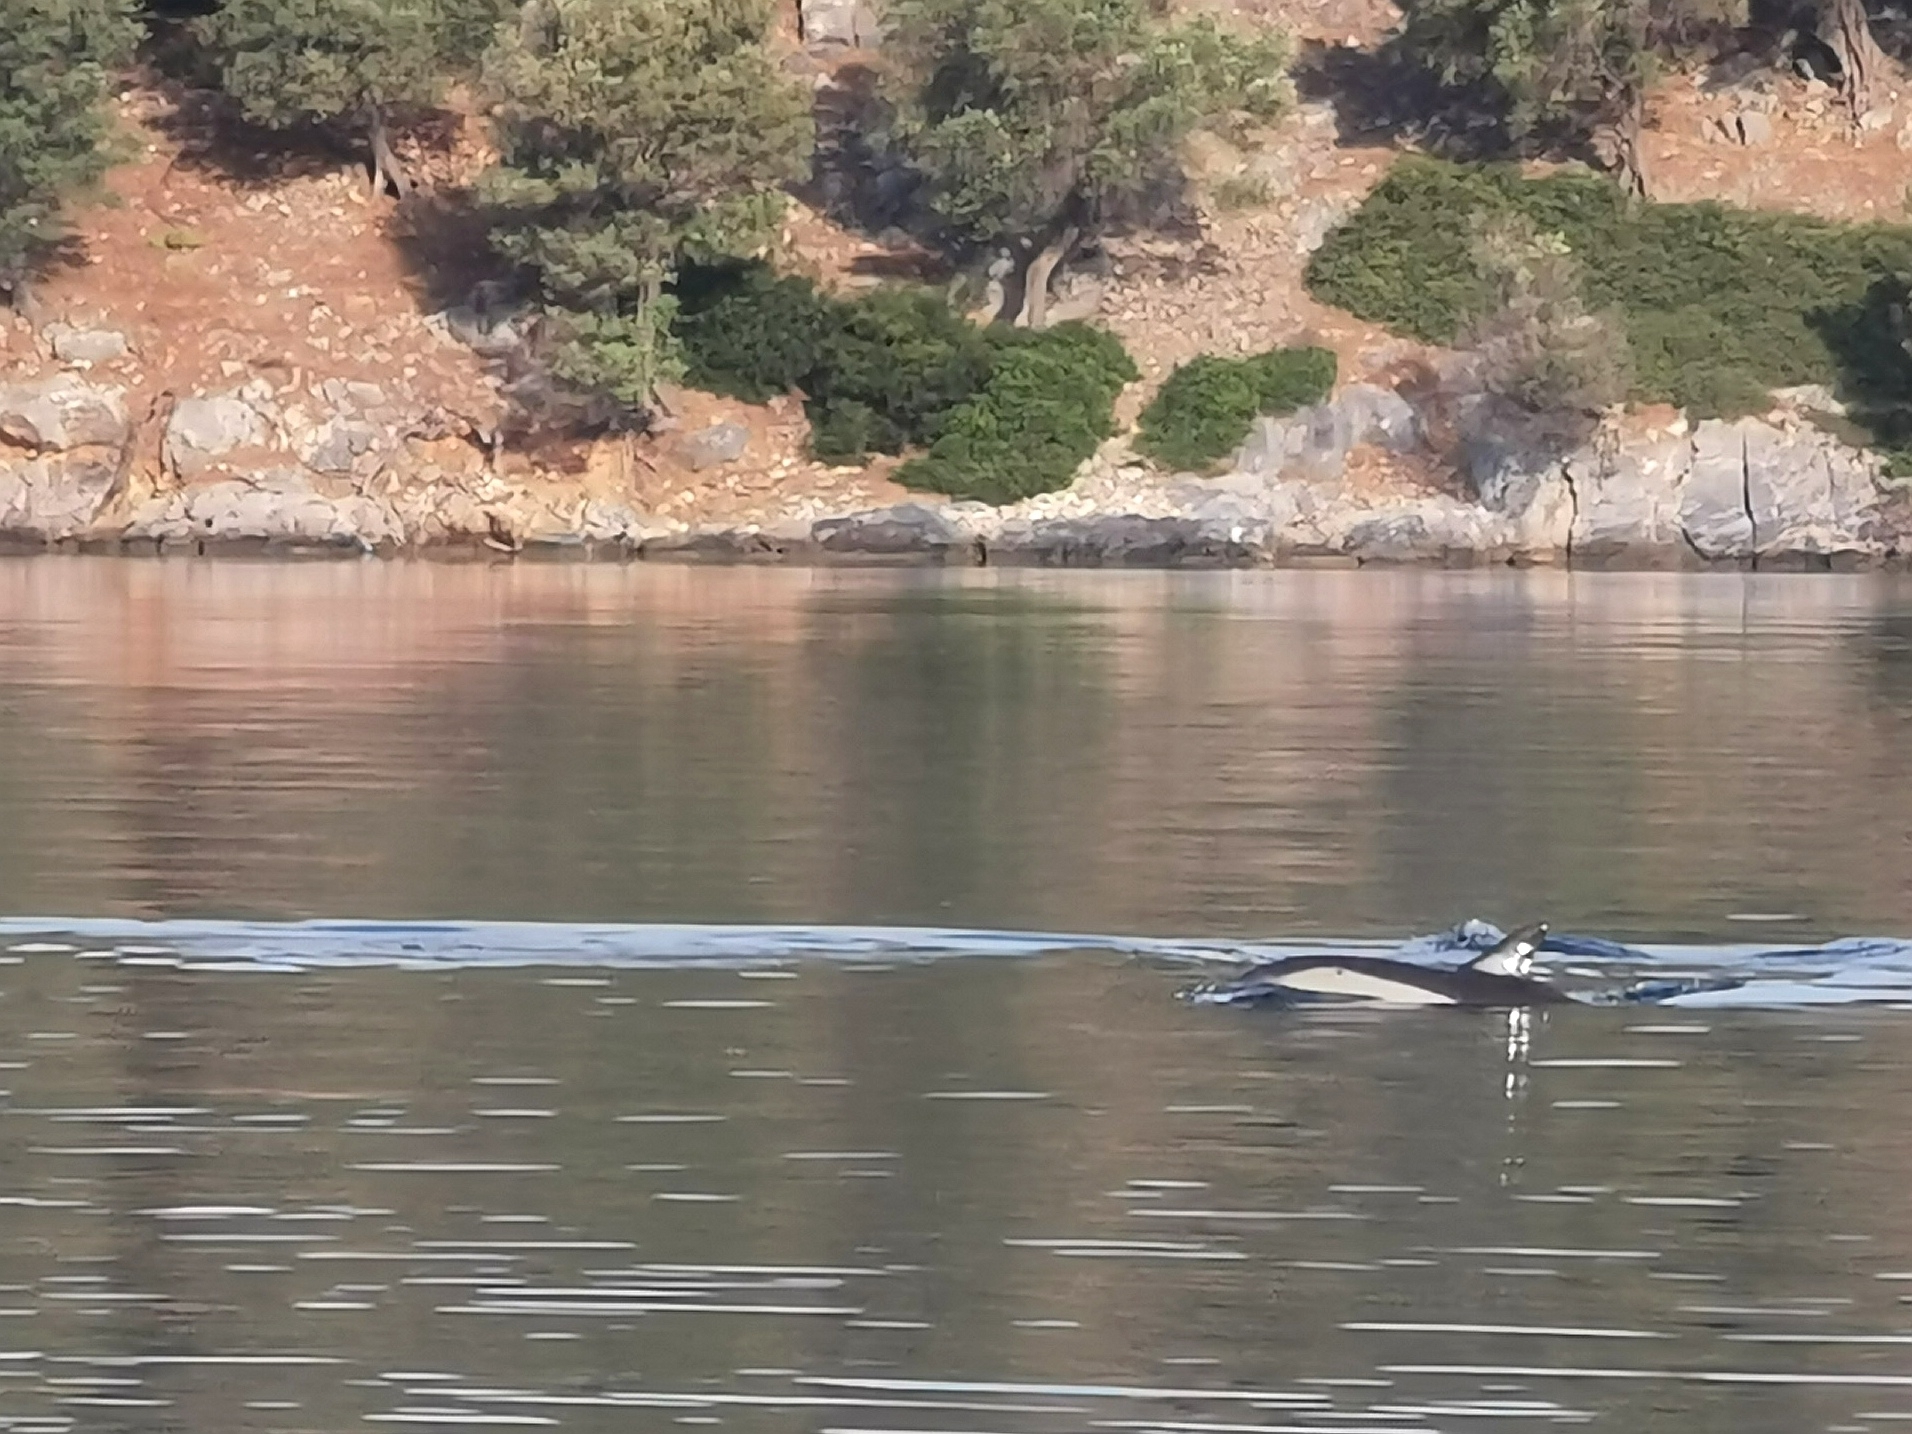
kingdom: Animalia
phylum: Chordata
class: Mammalia
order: Cetacea
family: Delphinidae
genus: Delphinus
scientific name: Delphinus delphis
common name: Common dolphin
